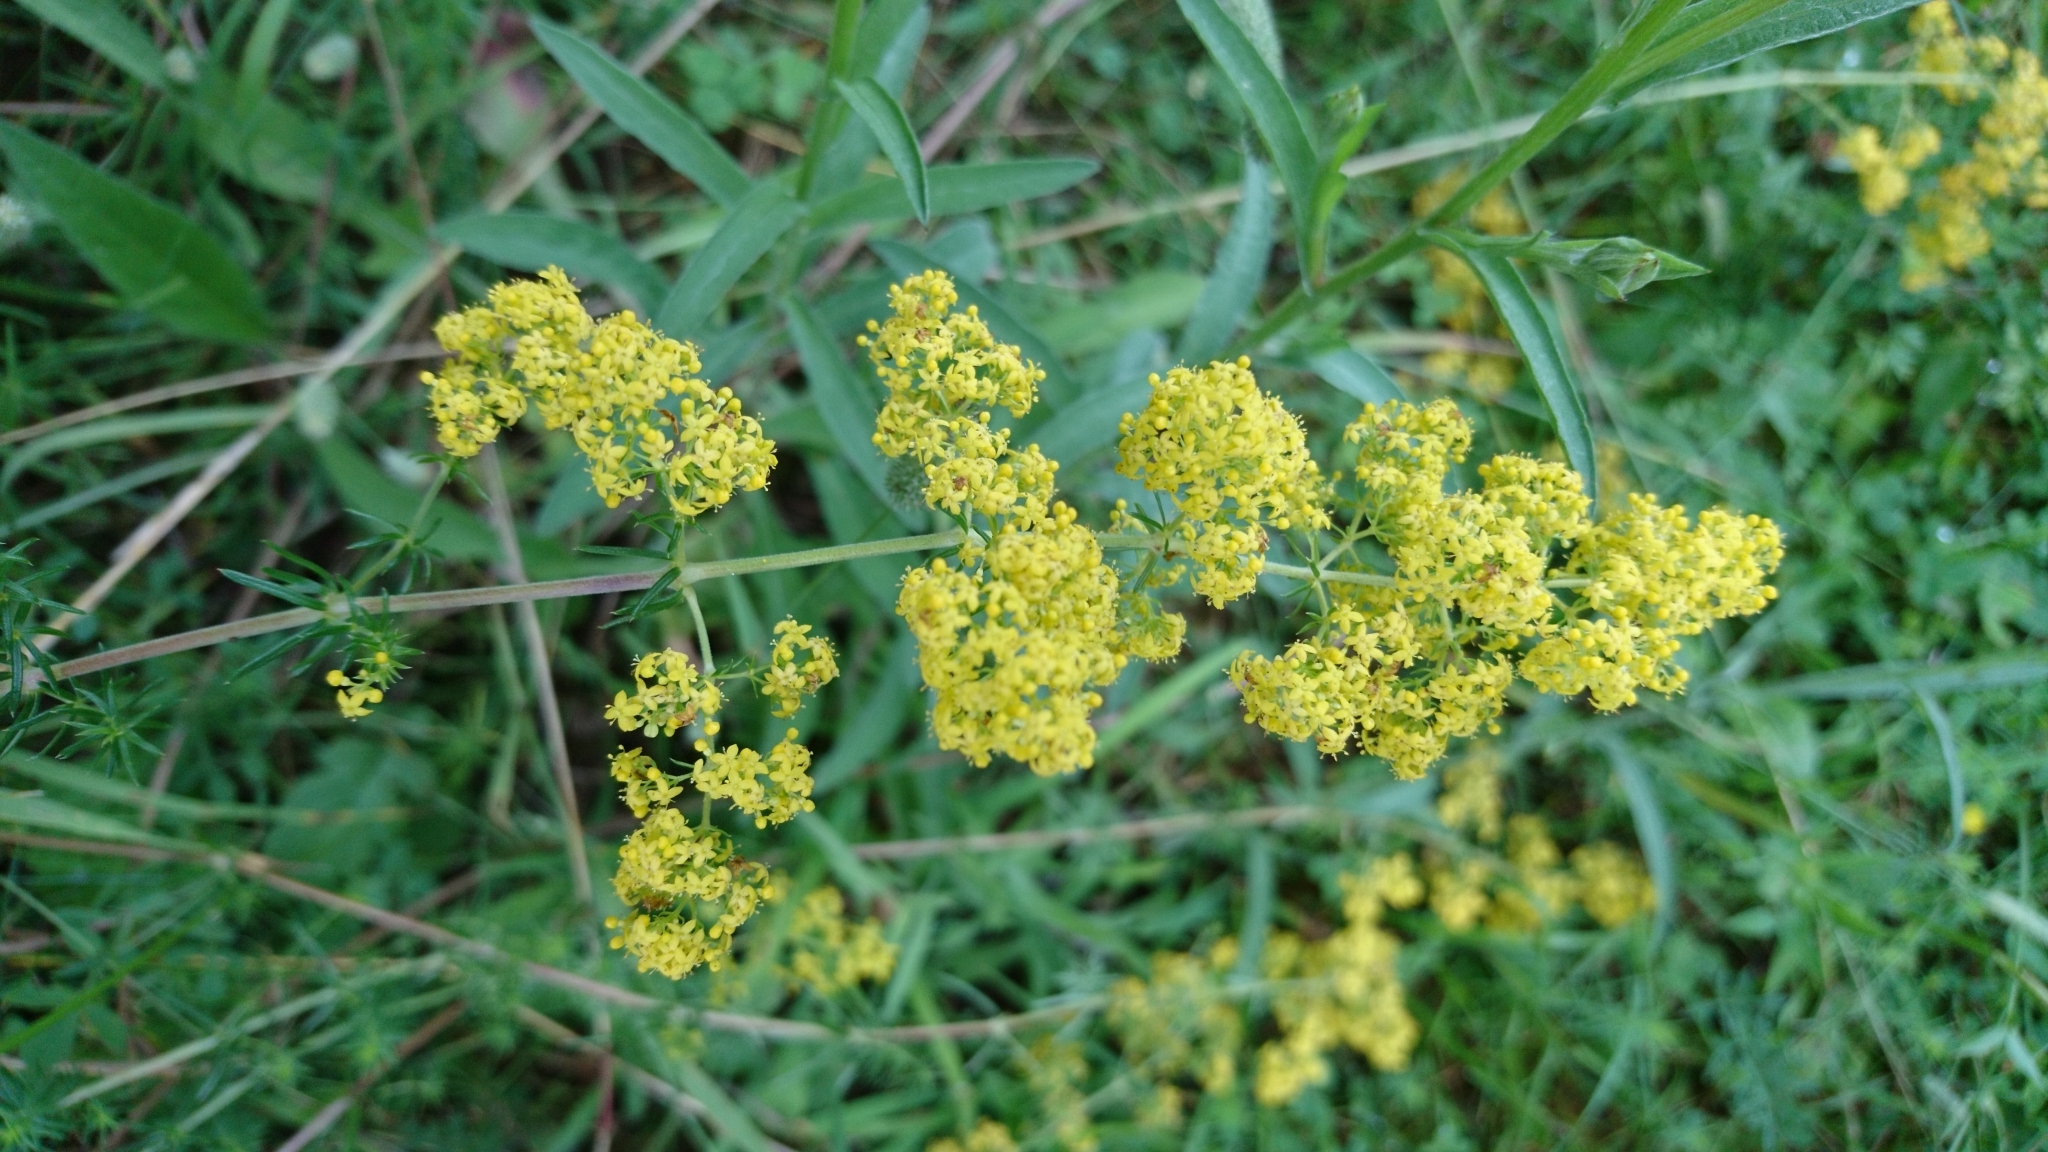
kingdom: Plantae
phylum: Tracheophyta
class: Magnoliopsida
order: Gentianales
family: Rubiaceae
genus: Galium
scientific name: Galium verum
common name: Lady's bedstraw
